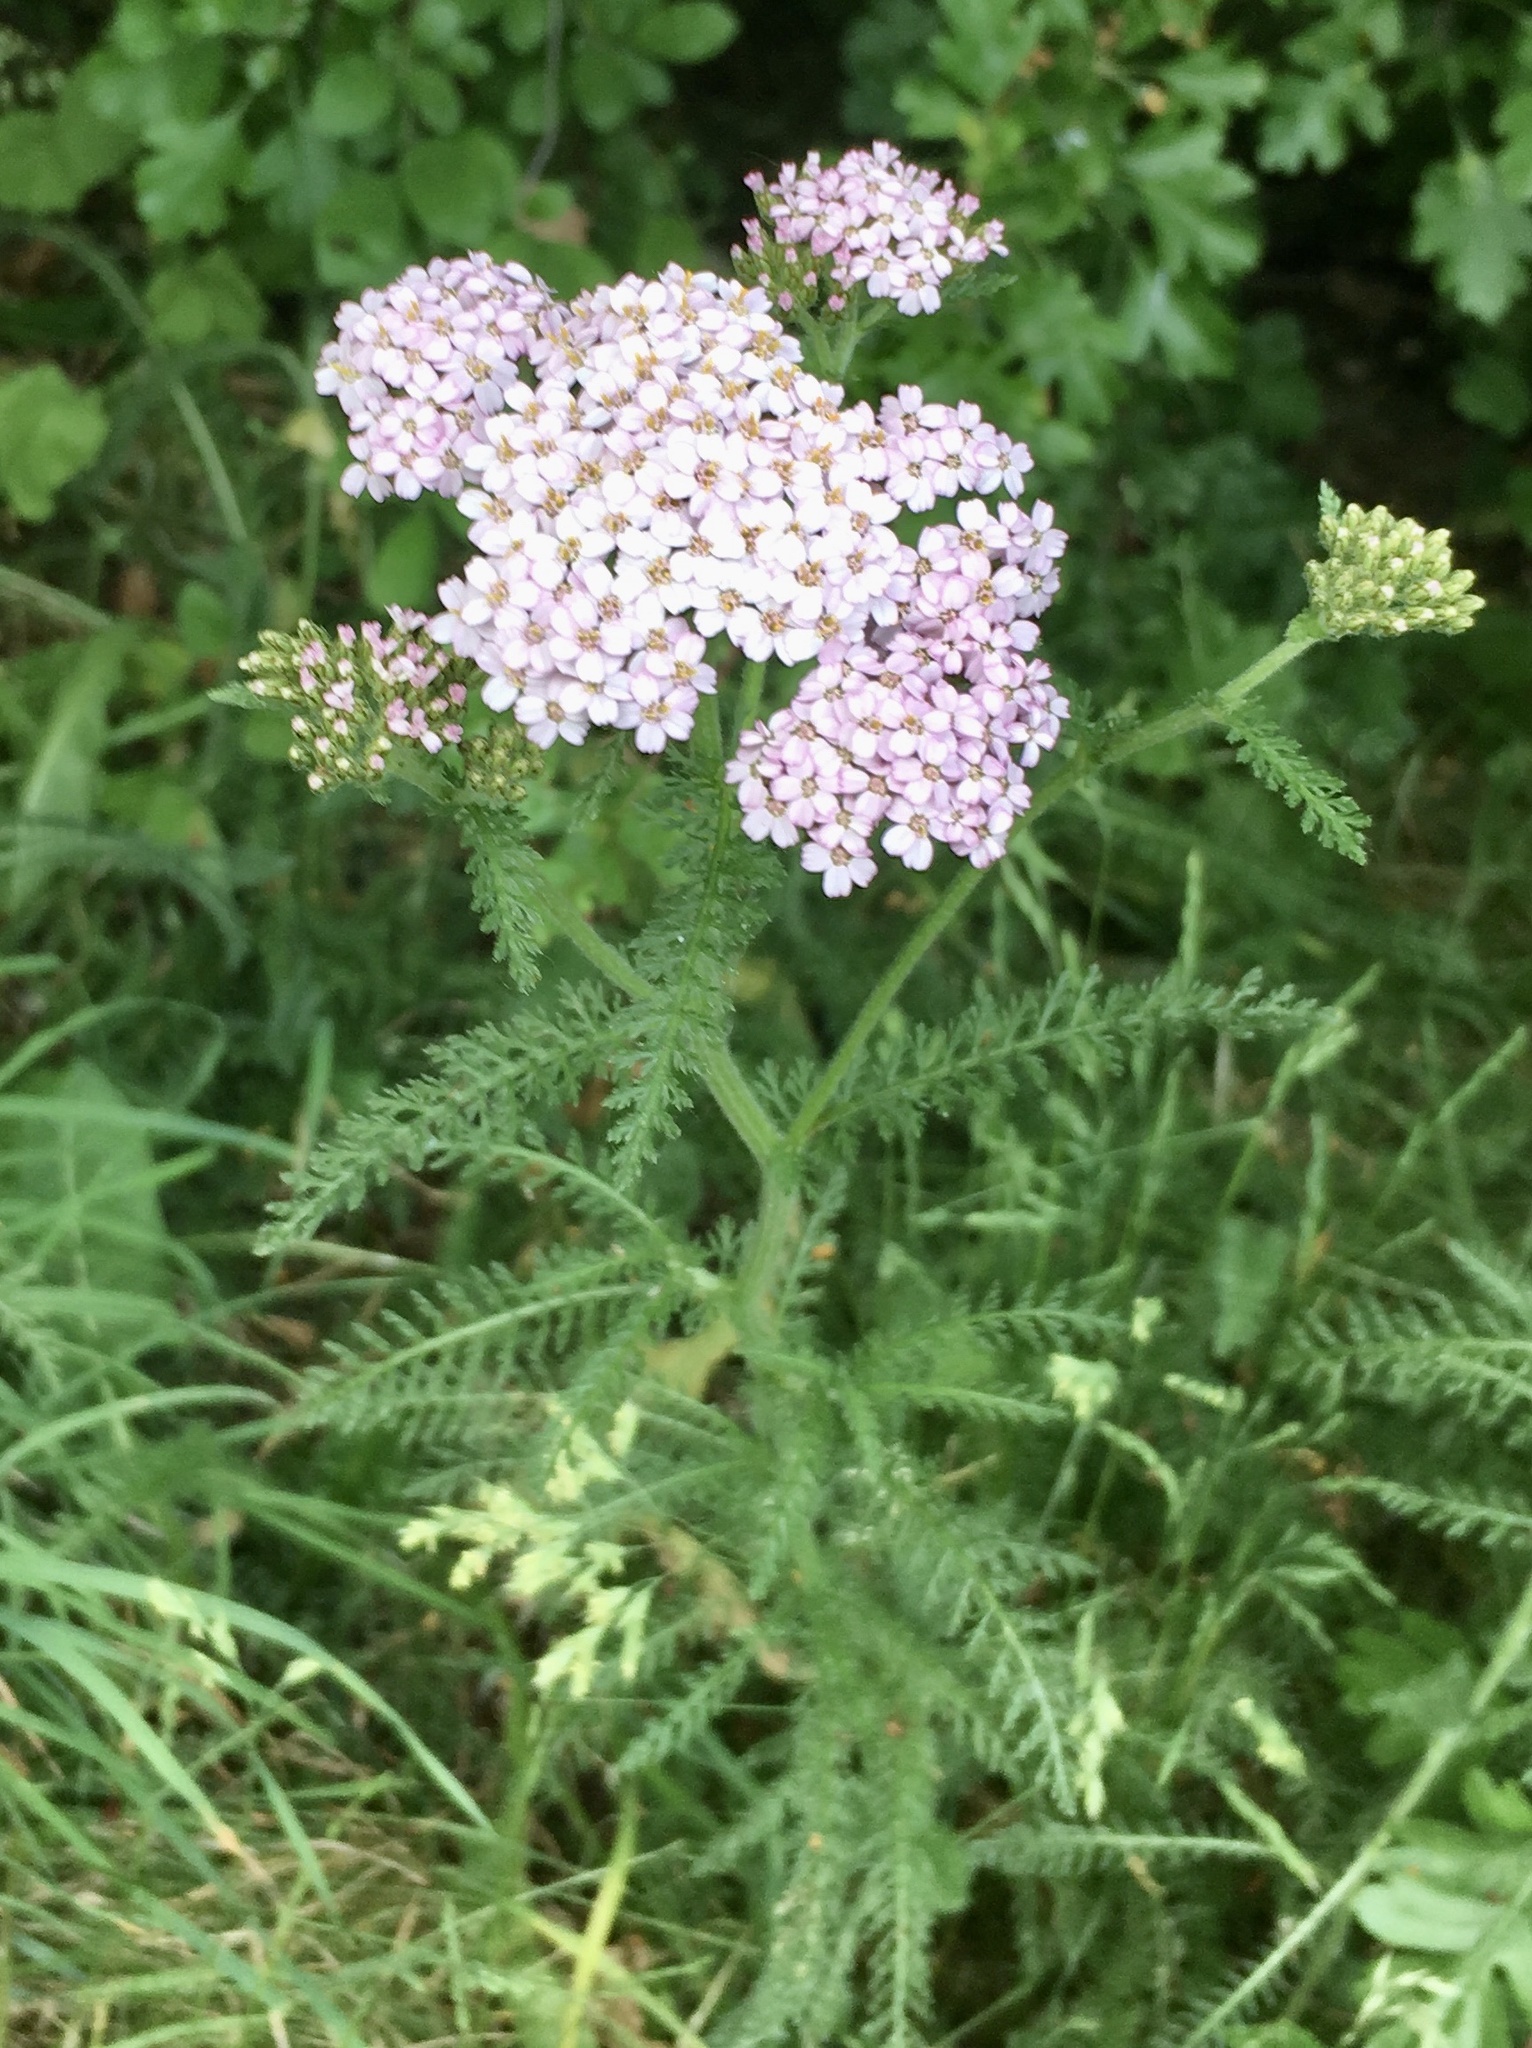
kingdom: Plantae
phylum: Tracheophyta
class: Magnoliopsida
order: Asterales
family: Asteraceae
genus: Achillea
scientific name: Achillea millefolium
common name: Yarrow
